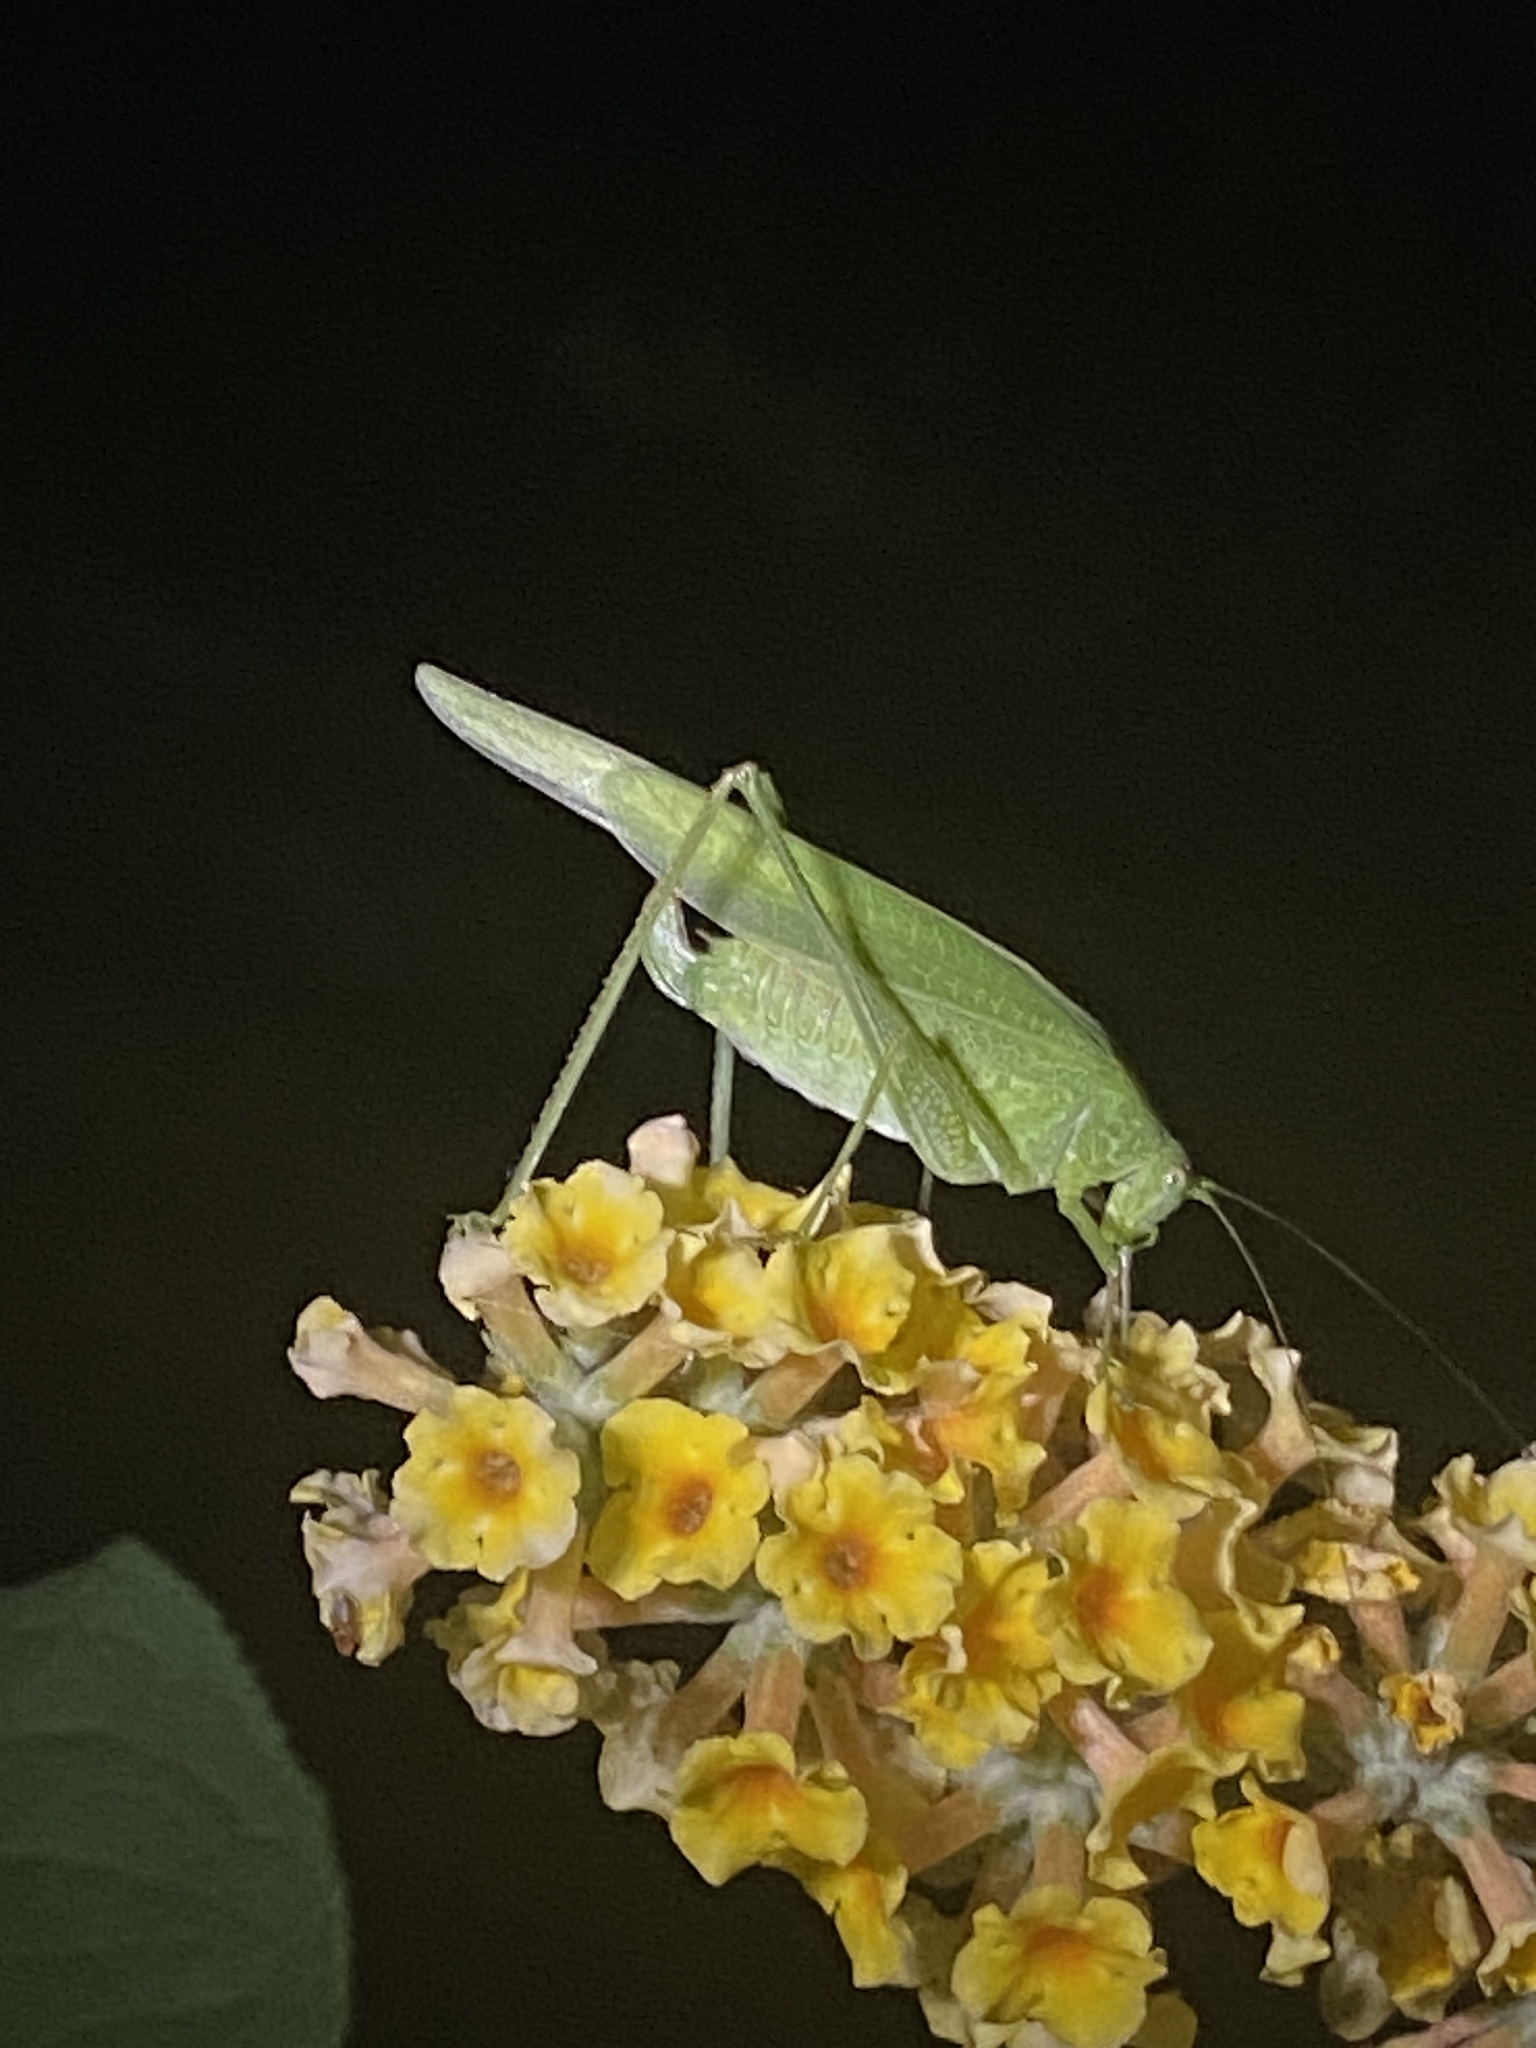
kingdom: Animalia
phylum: Arthropoda
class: Insecta
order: Orthoptera
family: Tettigoniidae
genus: Phaneroptera
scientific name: Phaneroptera nana
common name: Southern sickle bush-cricket
